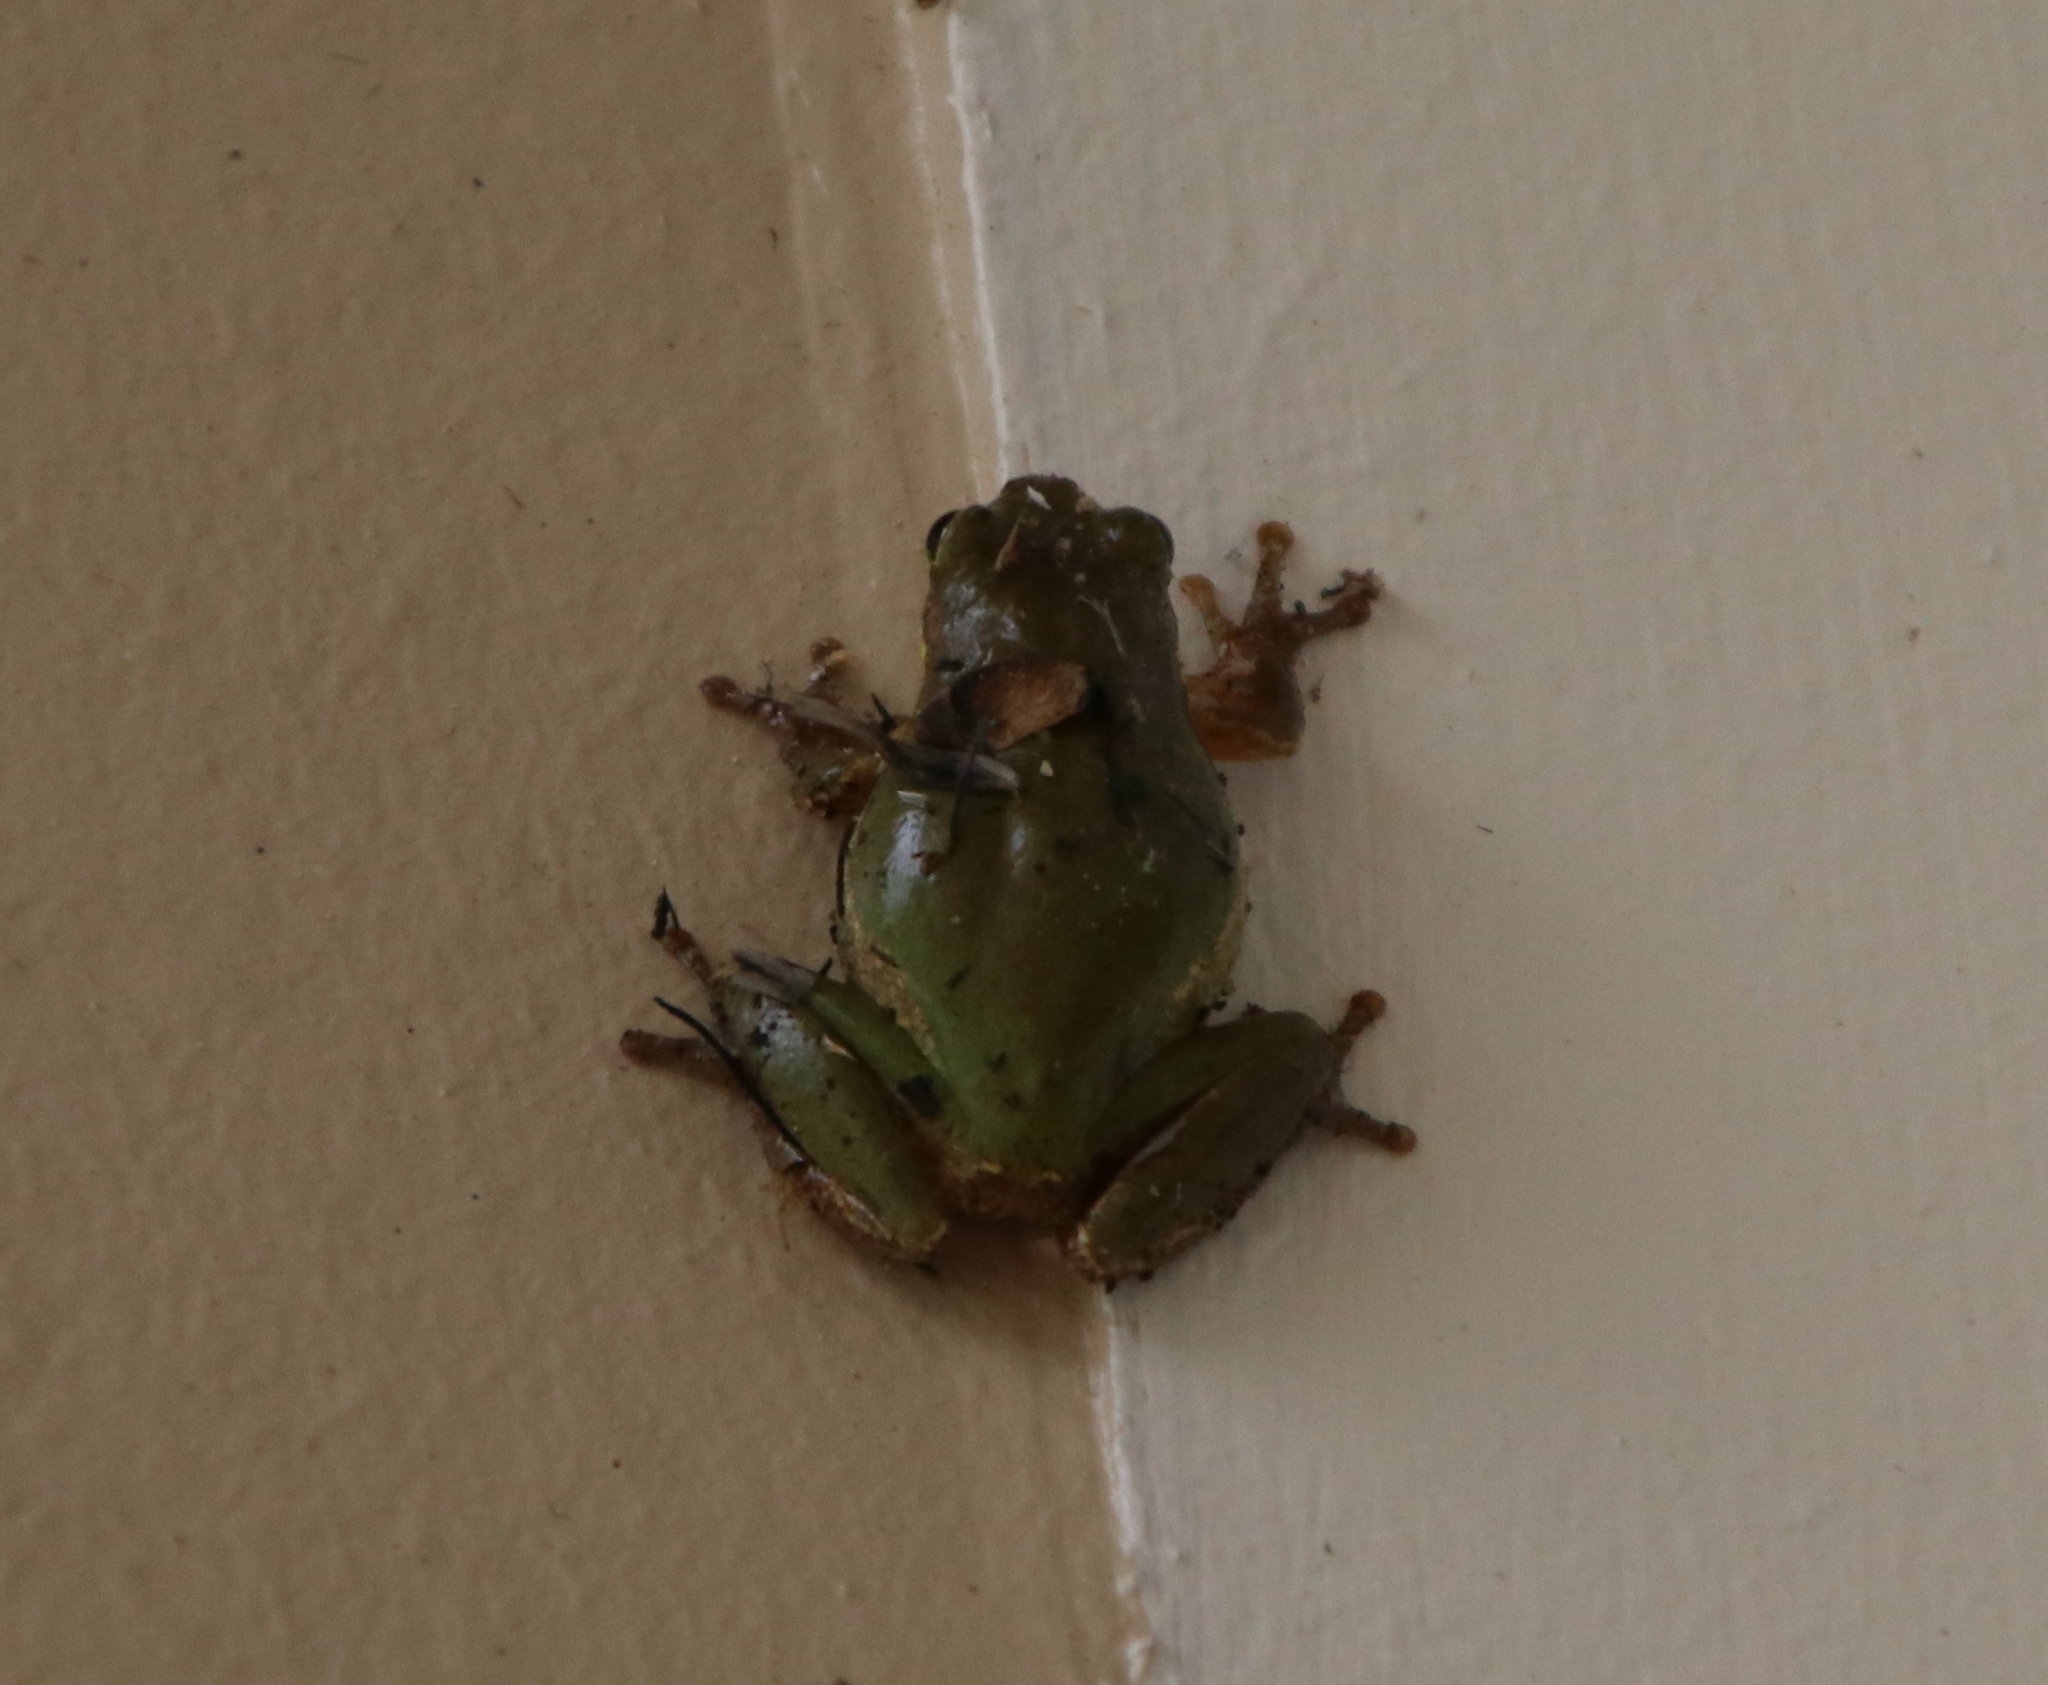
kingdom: Animalia
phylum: Chordata
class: Amphibia
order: Anura
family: Hylidae
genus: Dryophytes
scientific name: Dryophytes squirellus
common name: Squirrel treefrog
